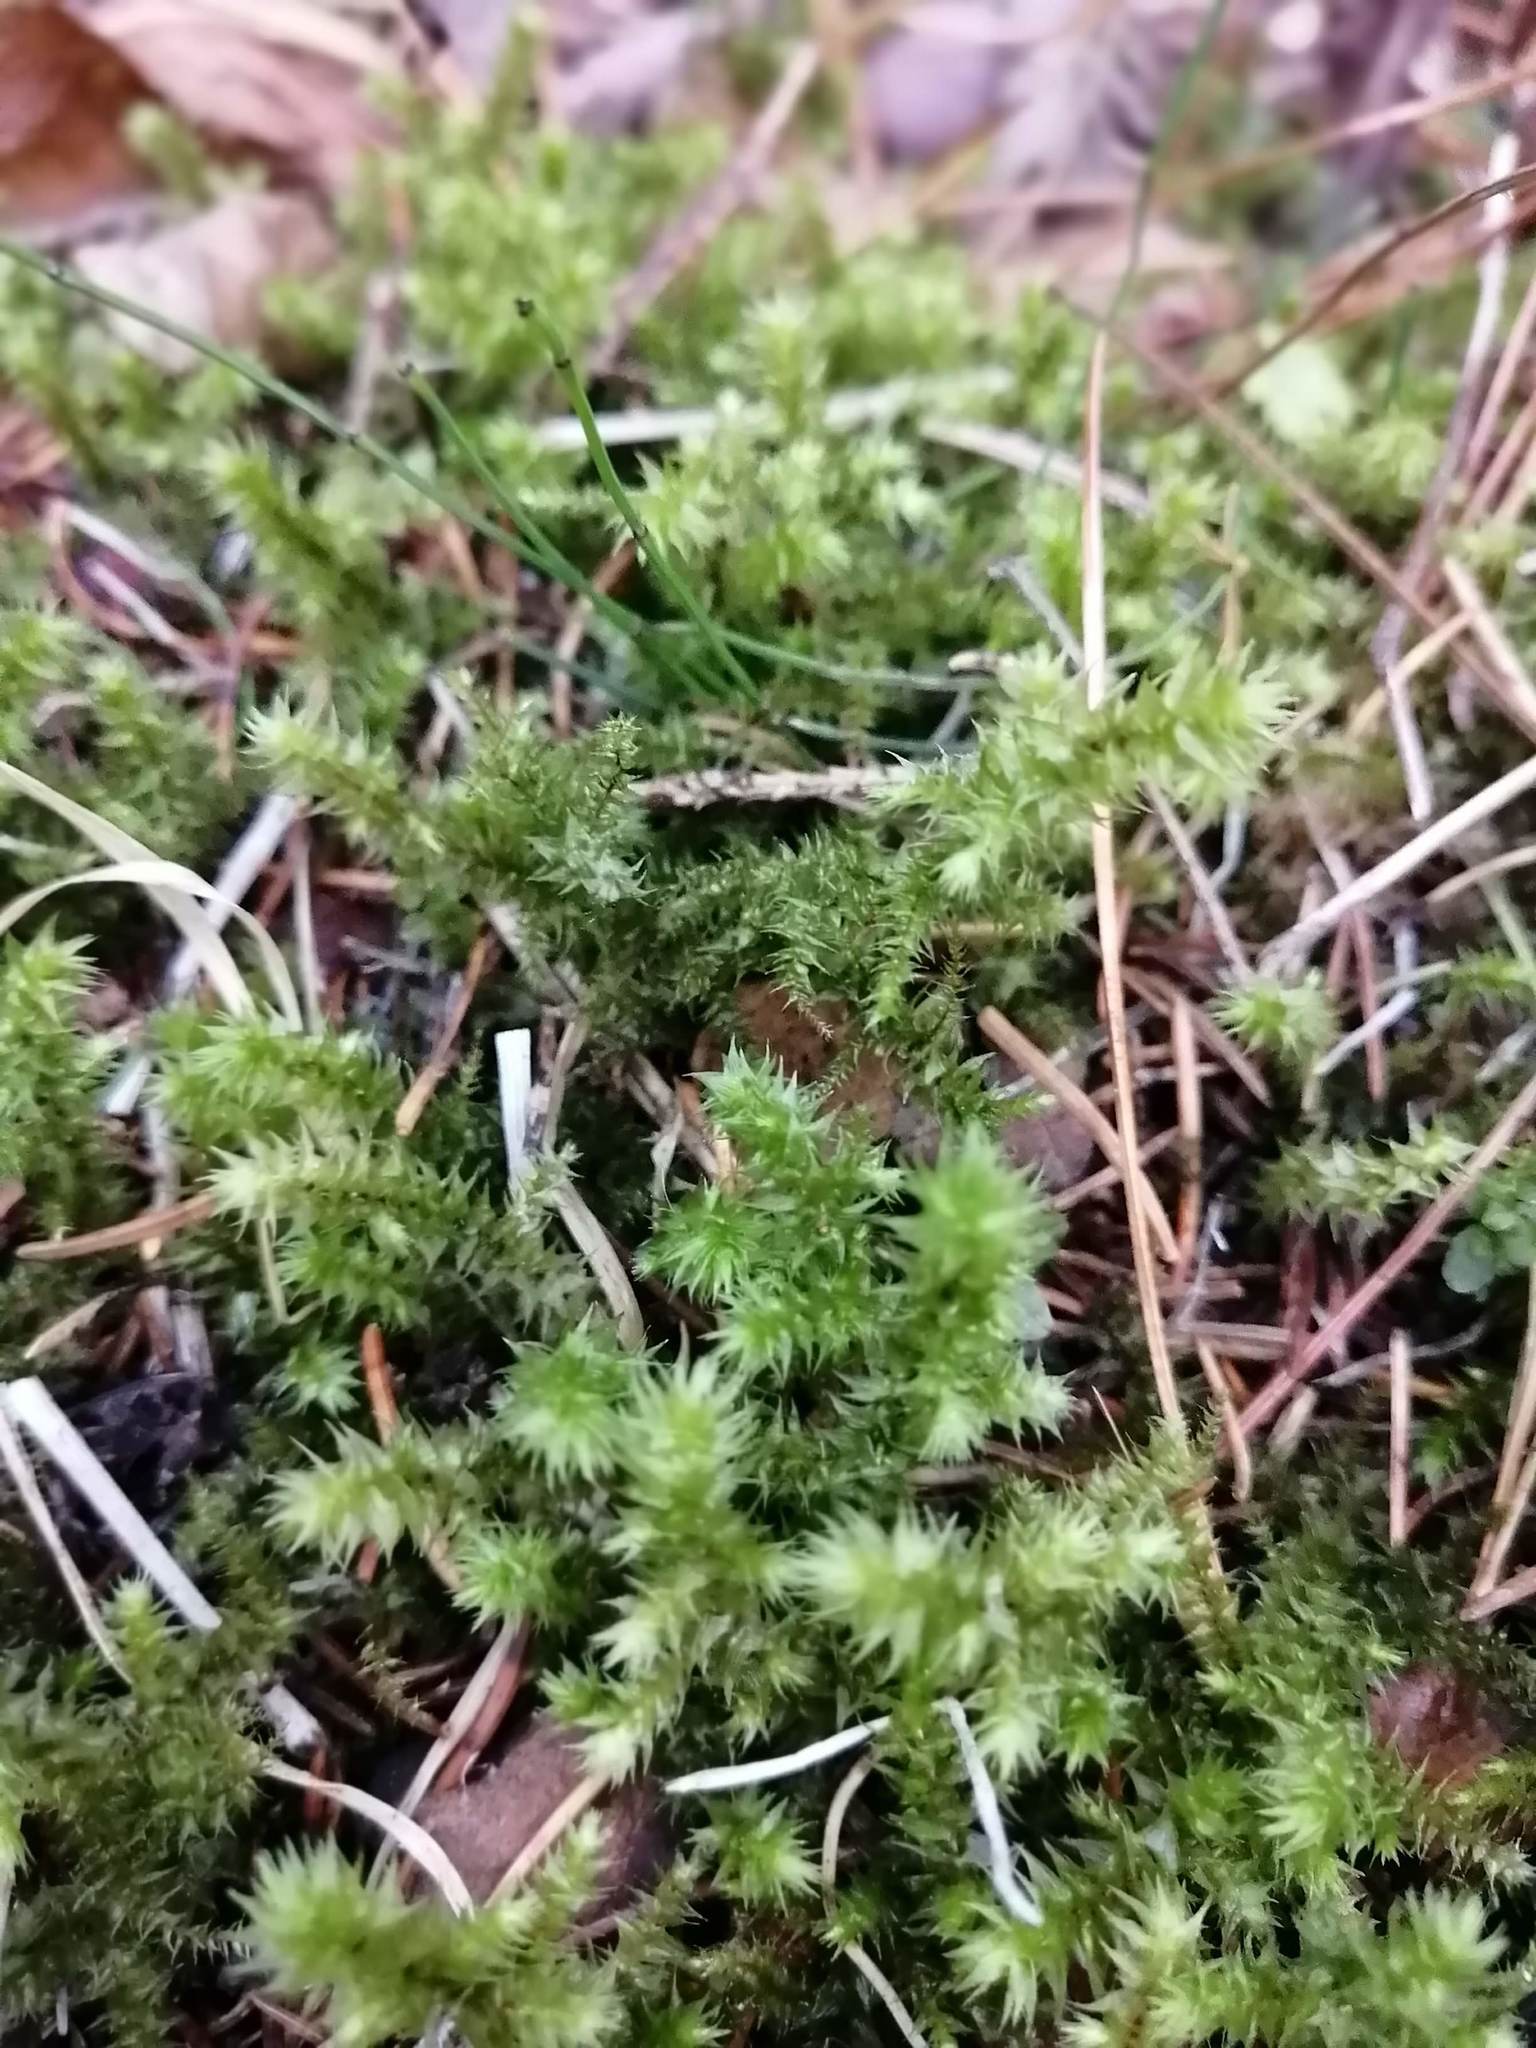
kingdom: Plantae
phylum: Bryophyta
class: Bryopsida
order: Hypnales
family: Hylocomiaceae
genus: Hylocomiadelphus
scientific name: Hylocomiadelphus triquetrus
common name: Rough goose neck moss
